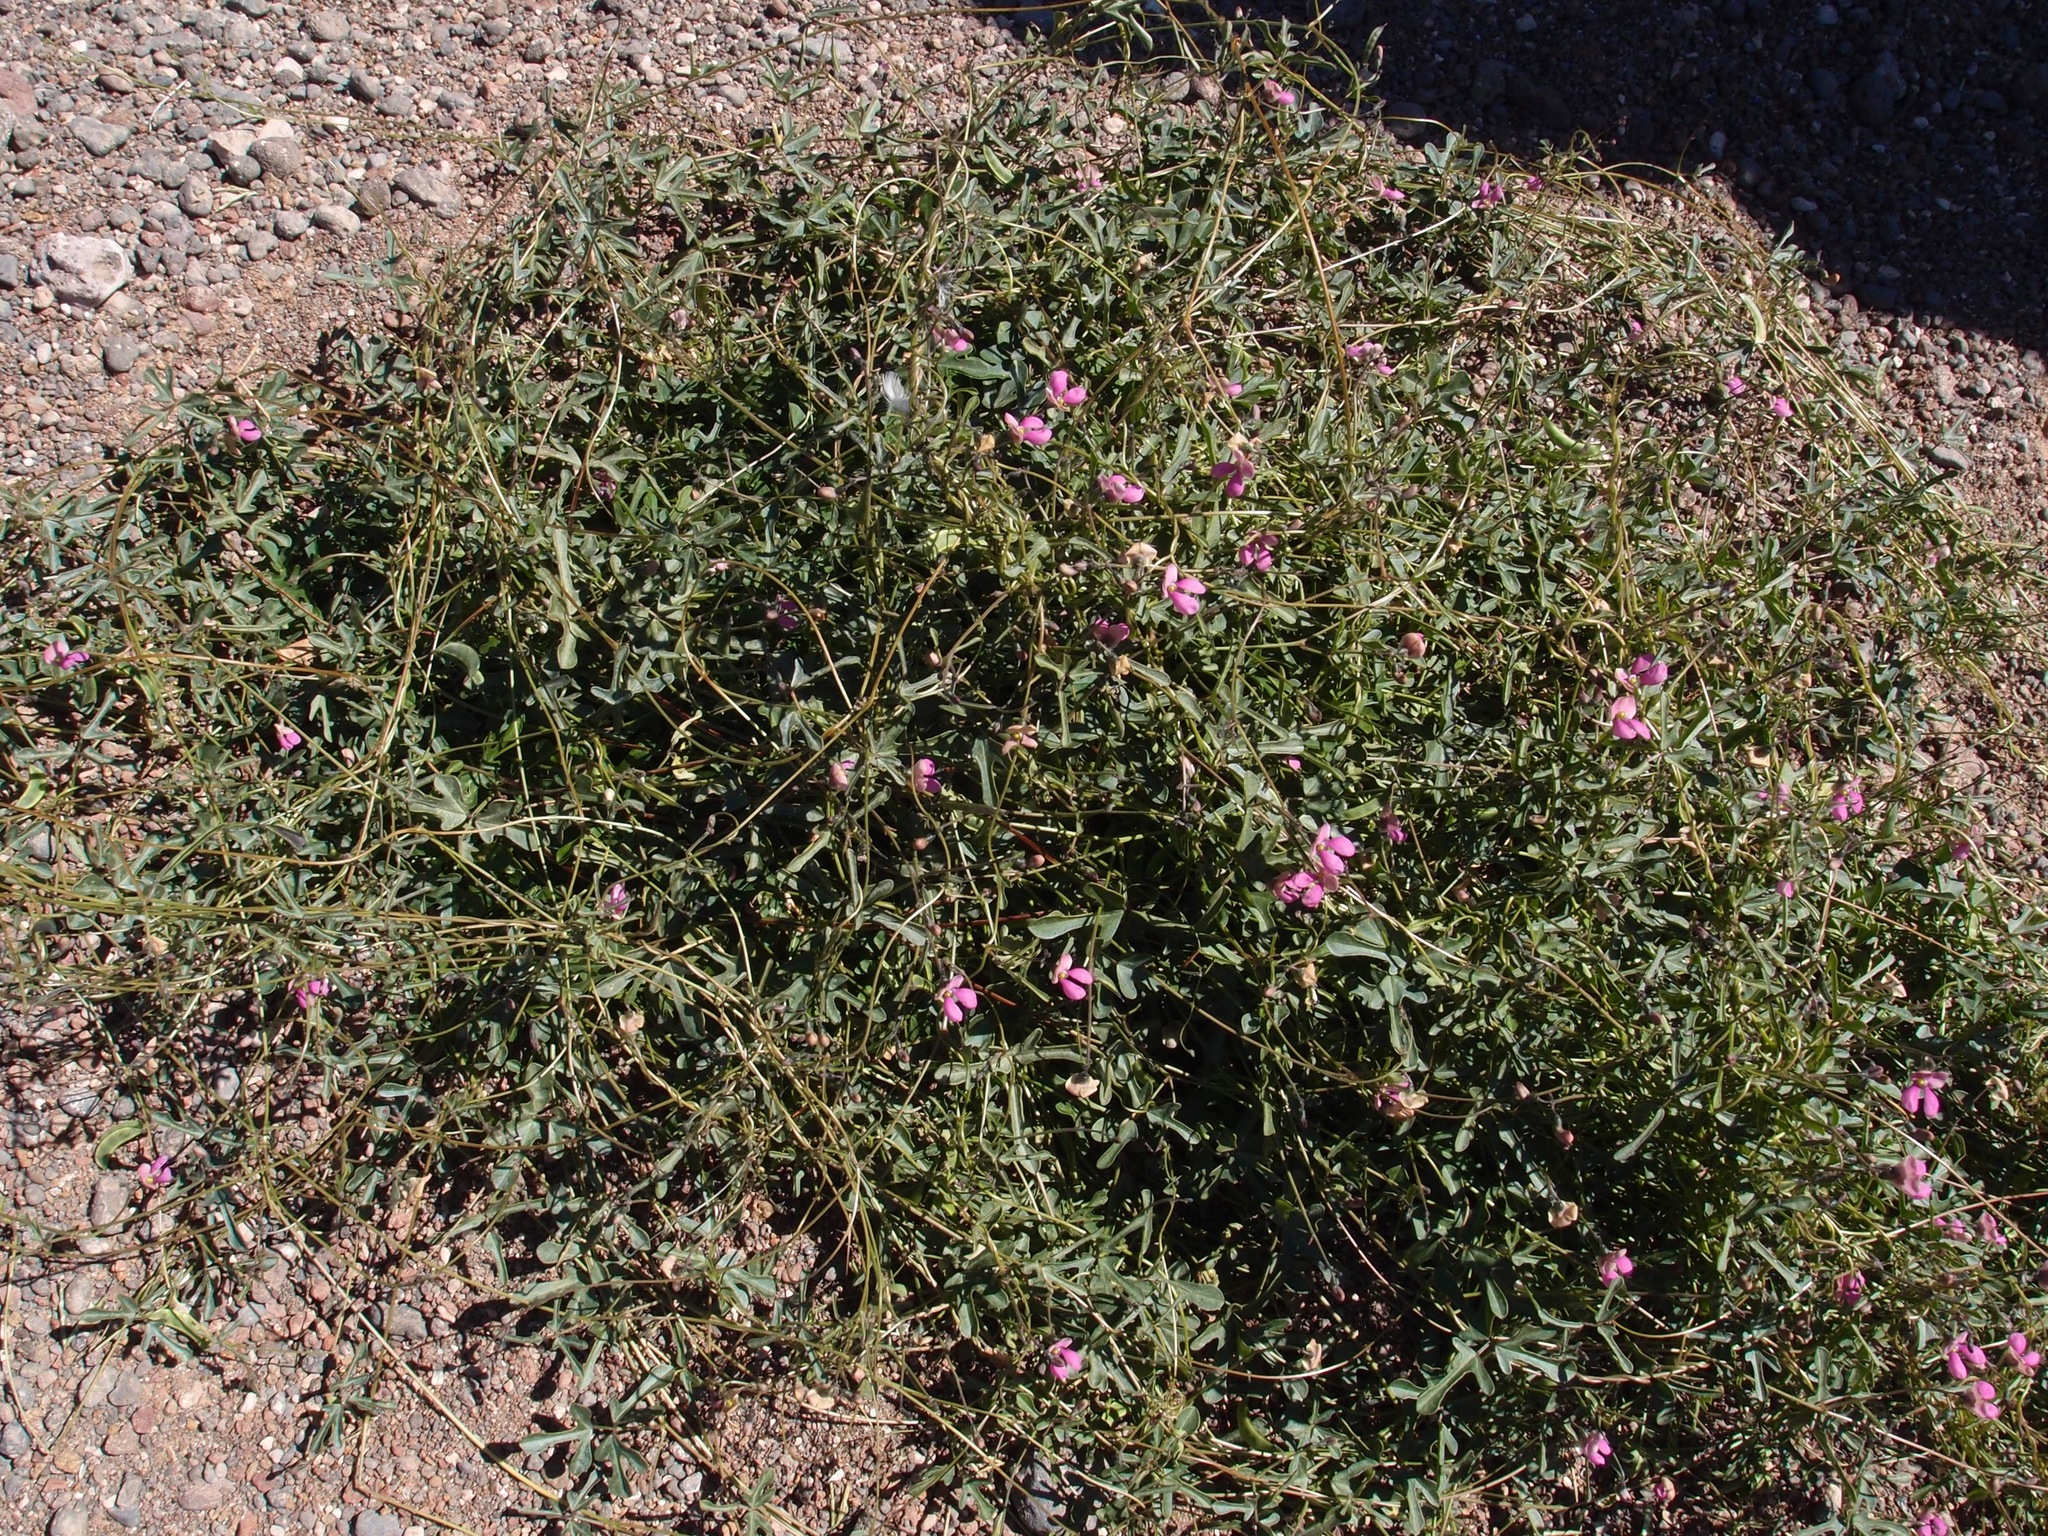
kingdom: Plantae
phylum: Tracheophyta
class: Magnoliopsida
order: Fabales
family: Fabaceae
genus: Phaseolus
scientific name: Phaseolus filiformis
